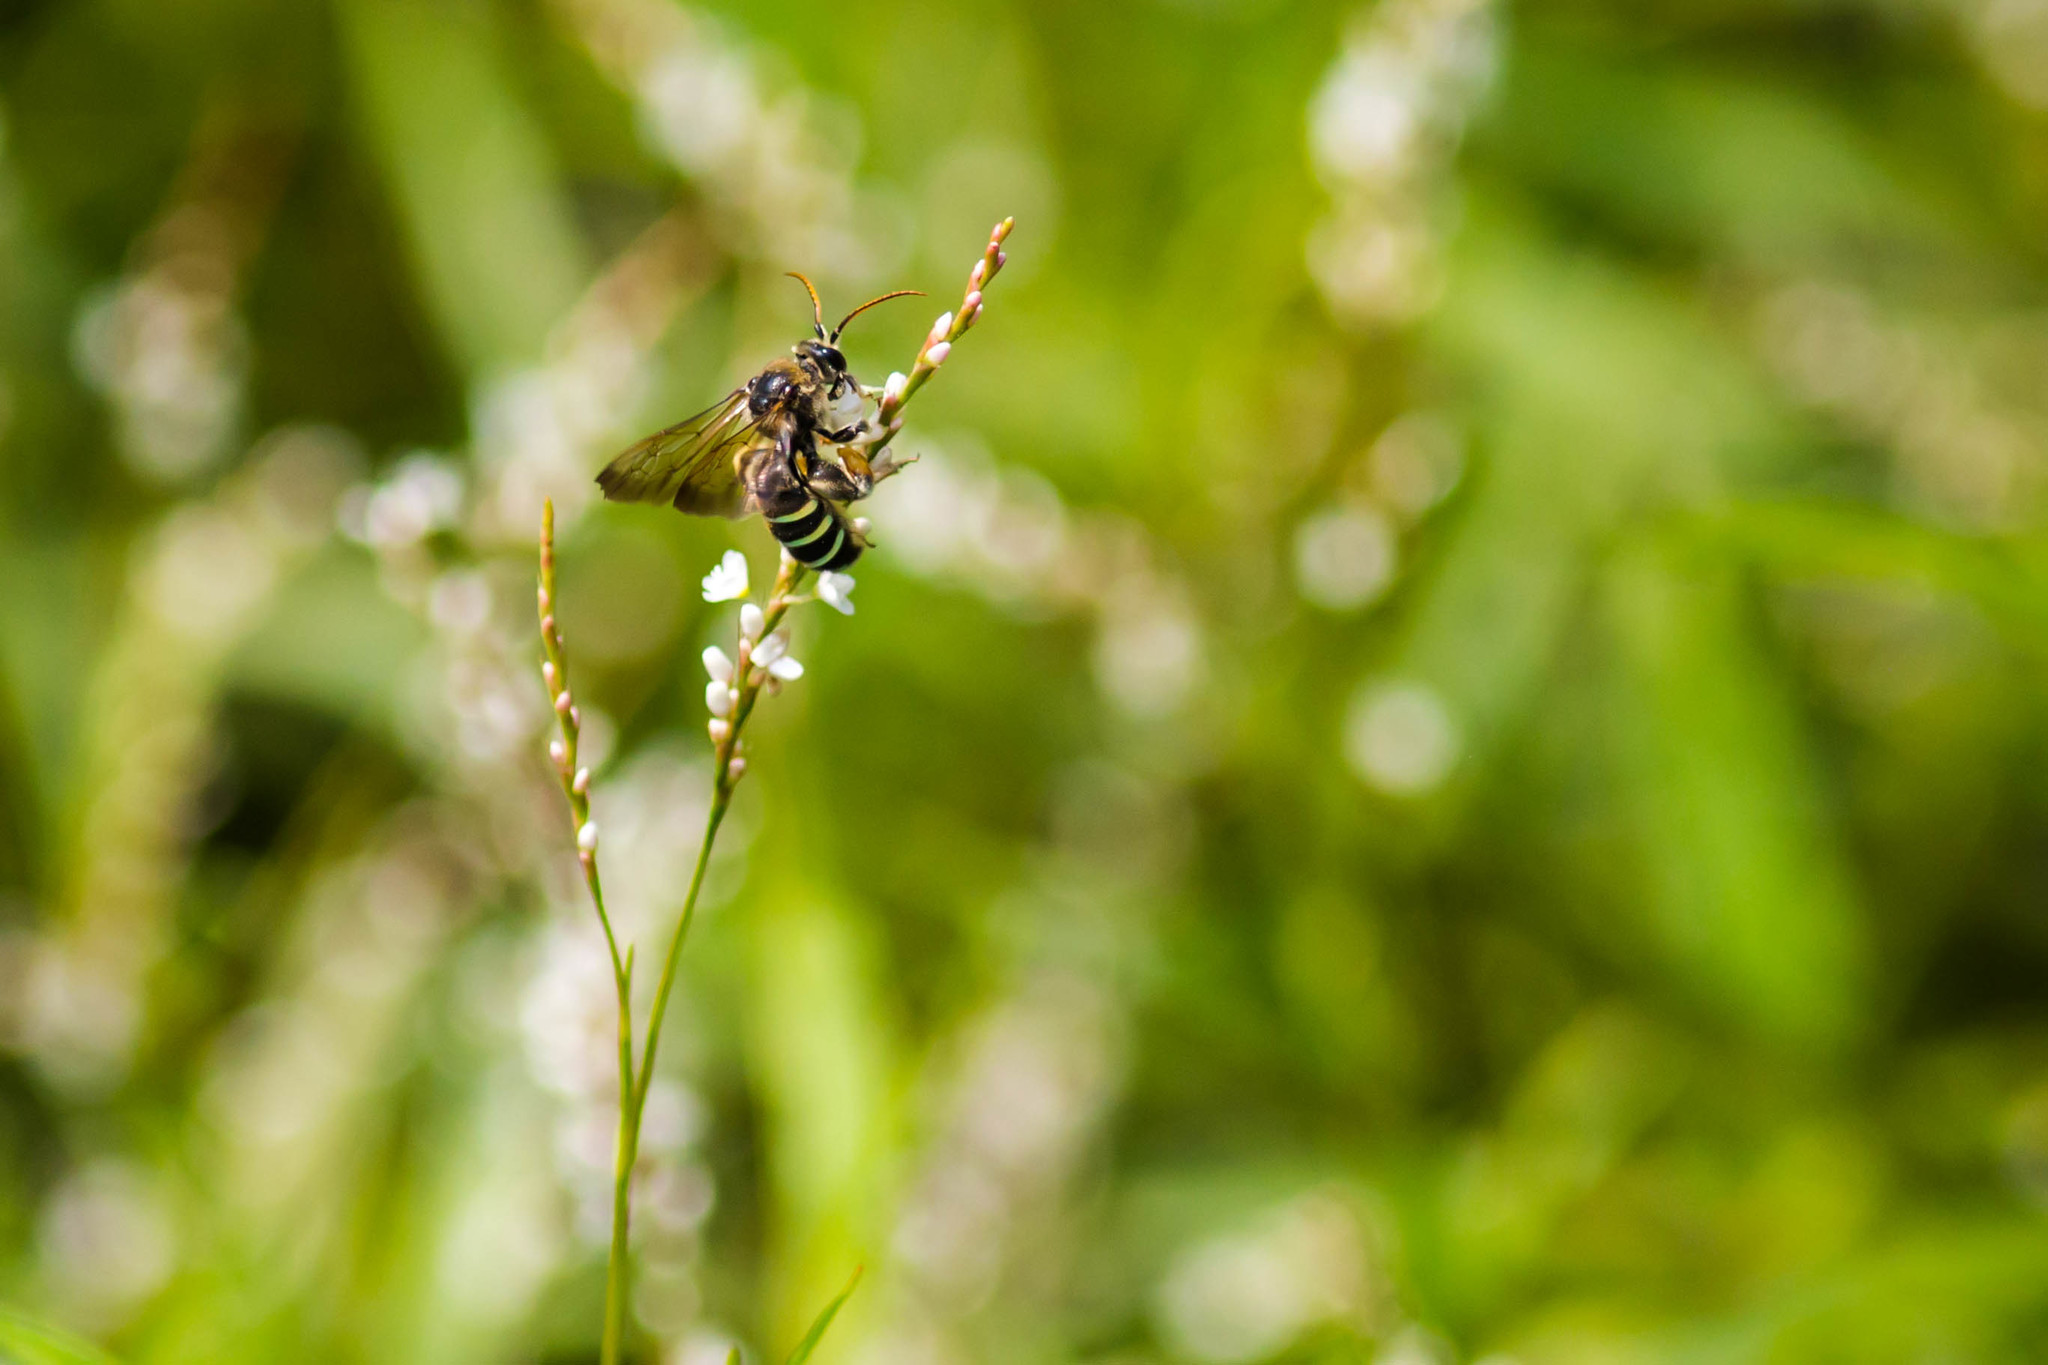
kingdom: Animalia
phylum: Arthropoda
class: Insecta
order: Hymenoptera
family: Halictidae
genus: Nomia
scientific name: Nomia nortoni
